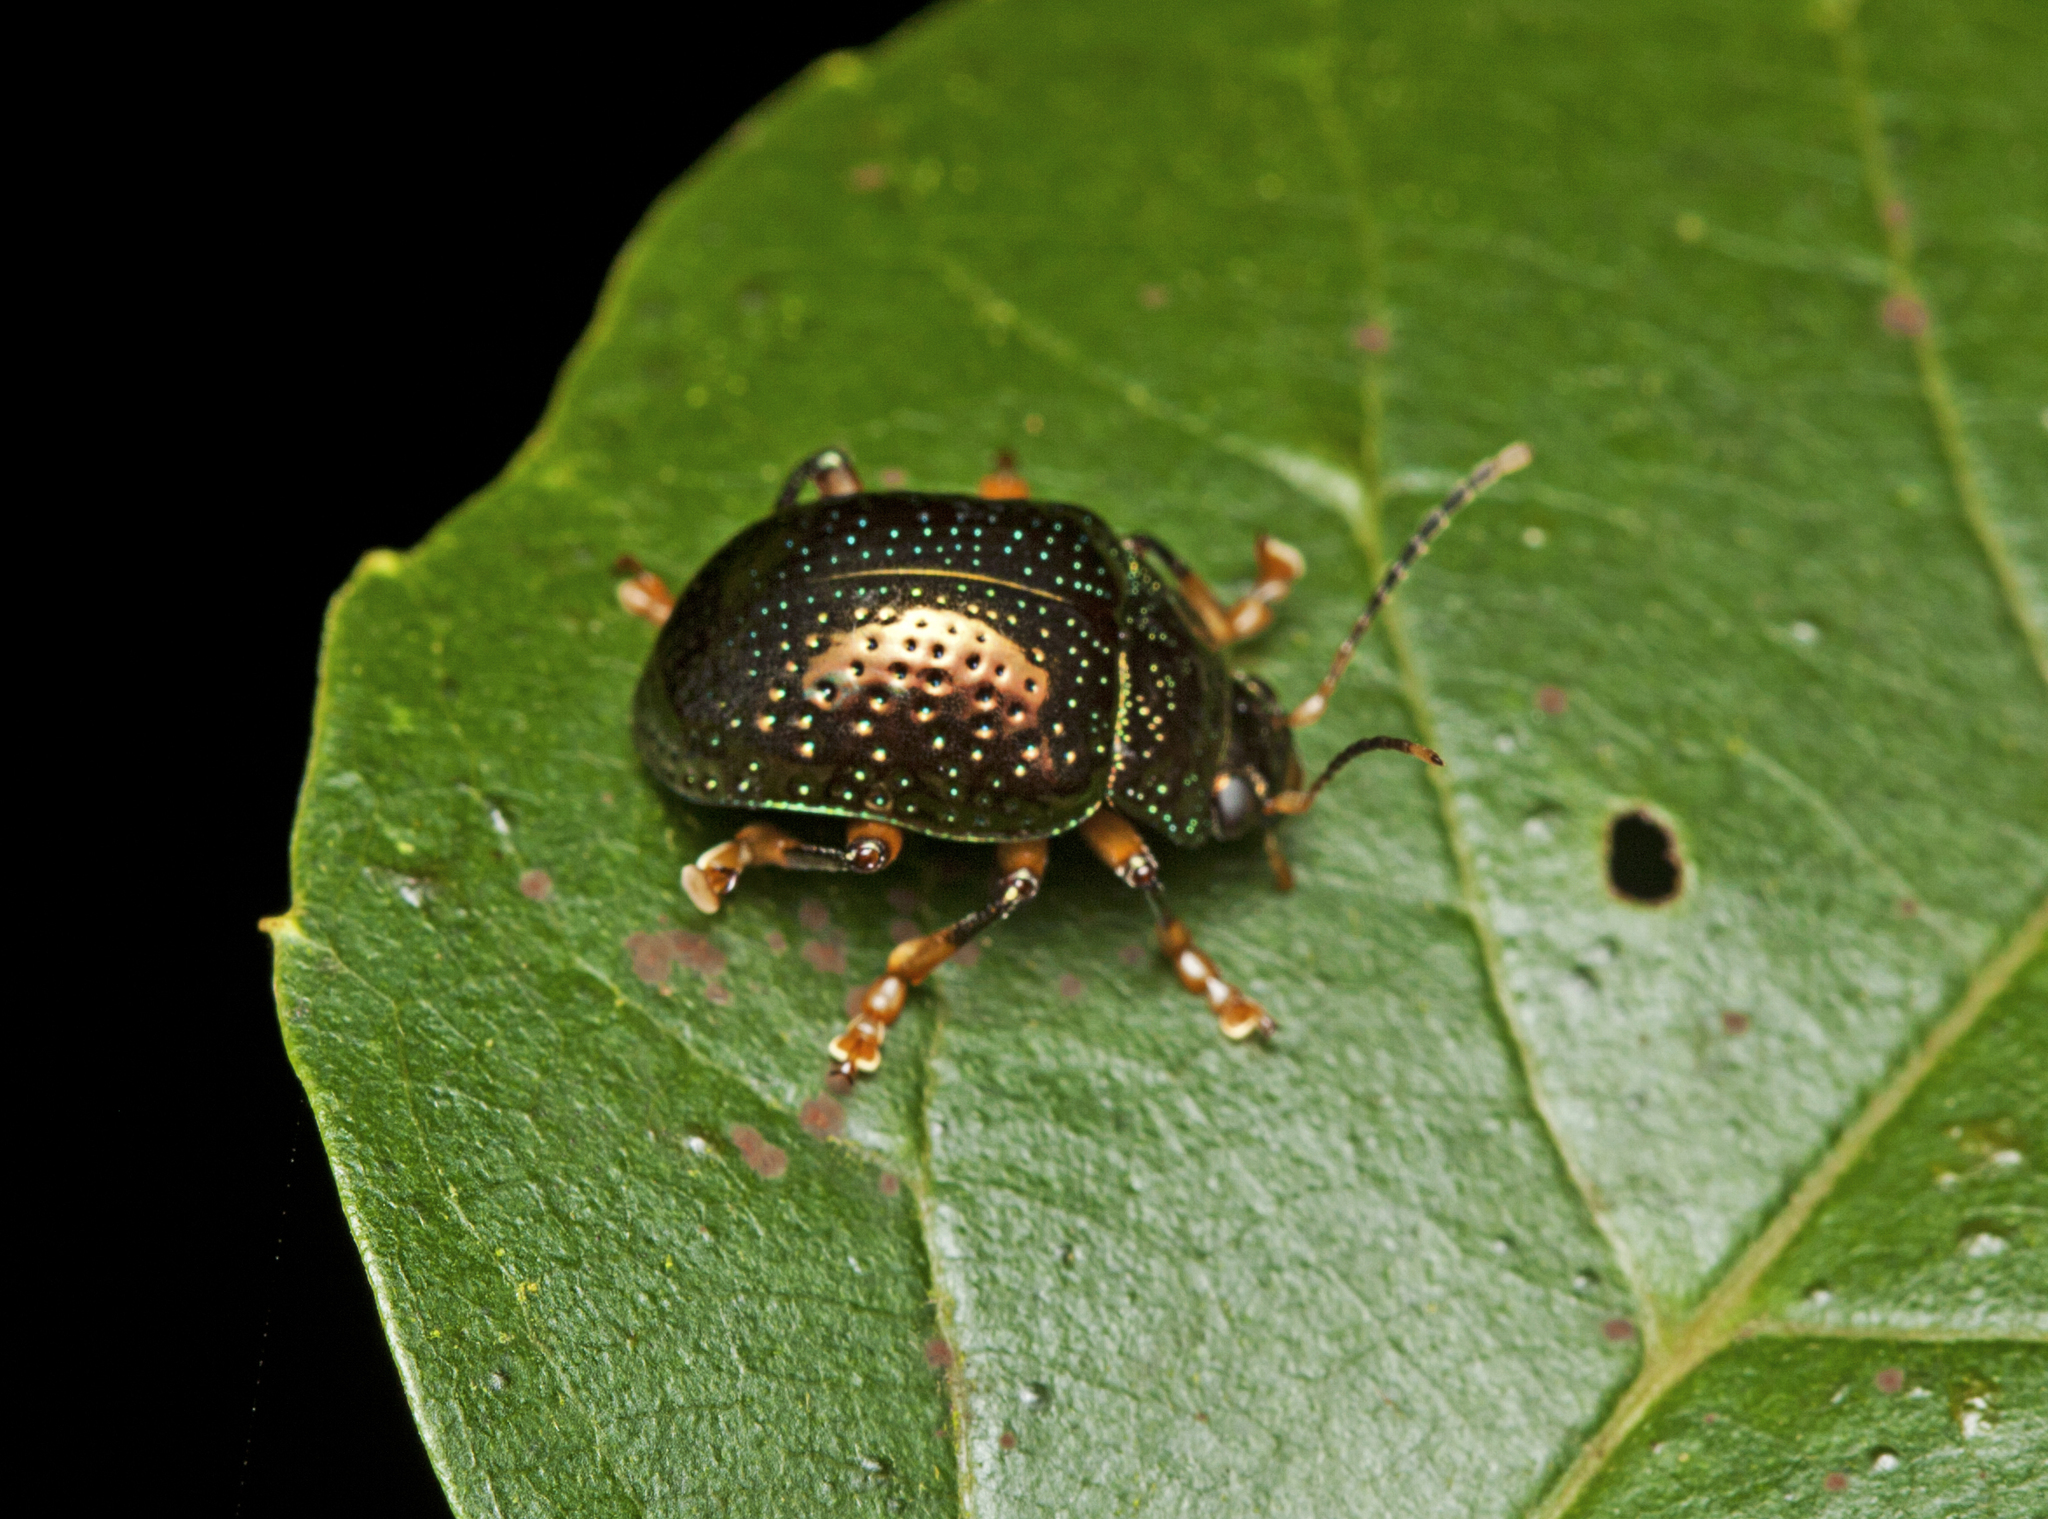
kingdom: Animalia
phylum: Arthropoda
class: Insecta
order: Coleoptera
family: Chrysomelidae
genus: Callidemum
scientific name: Callidemum
